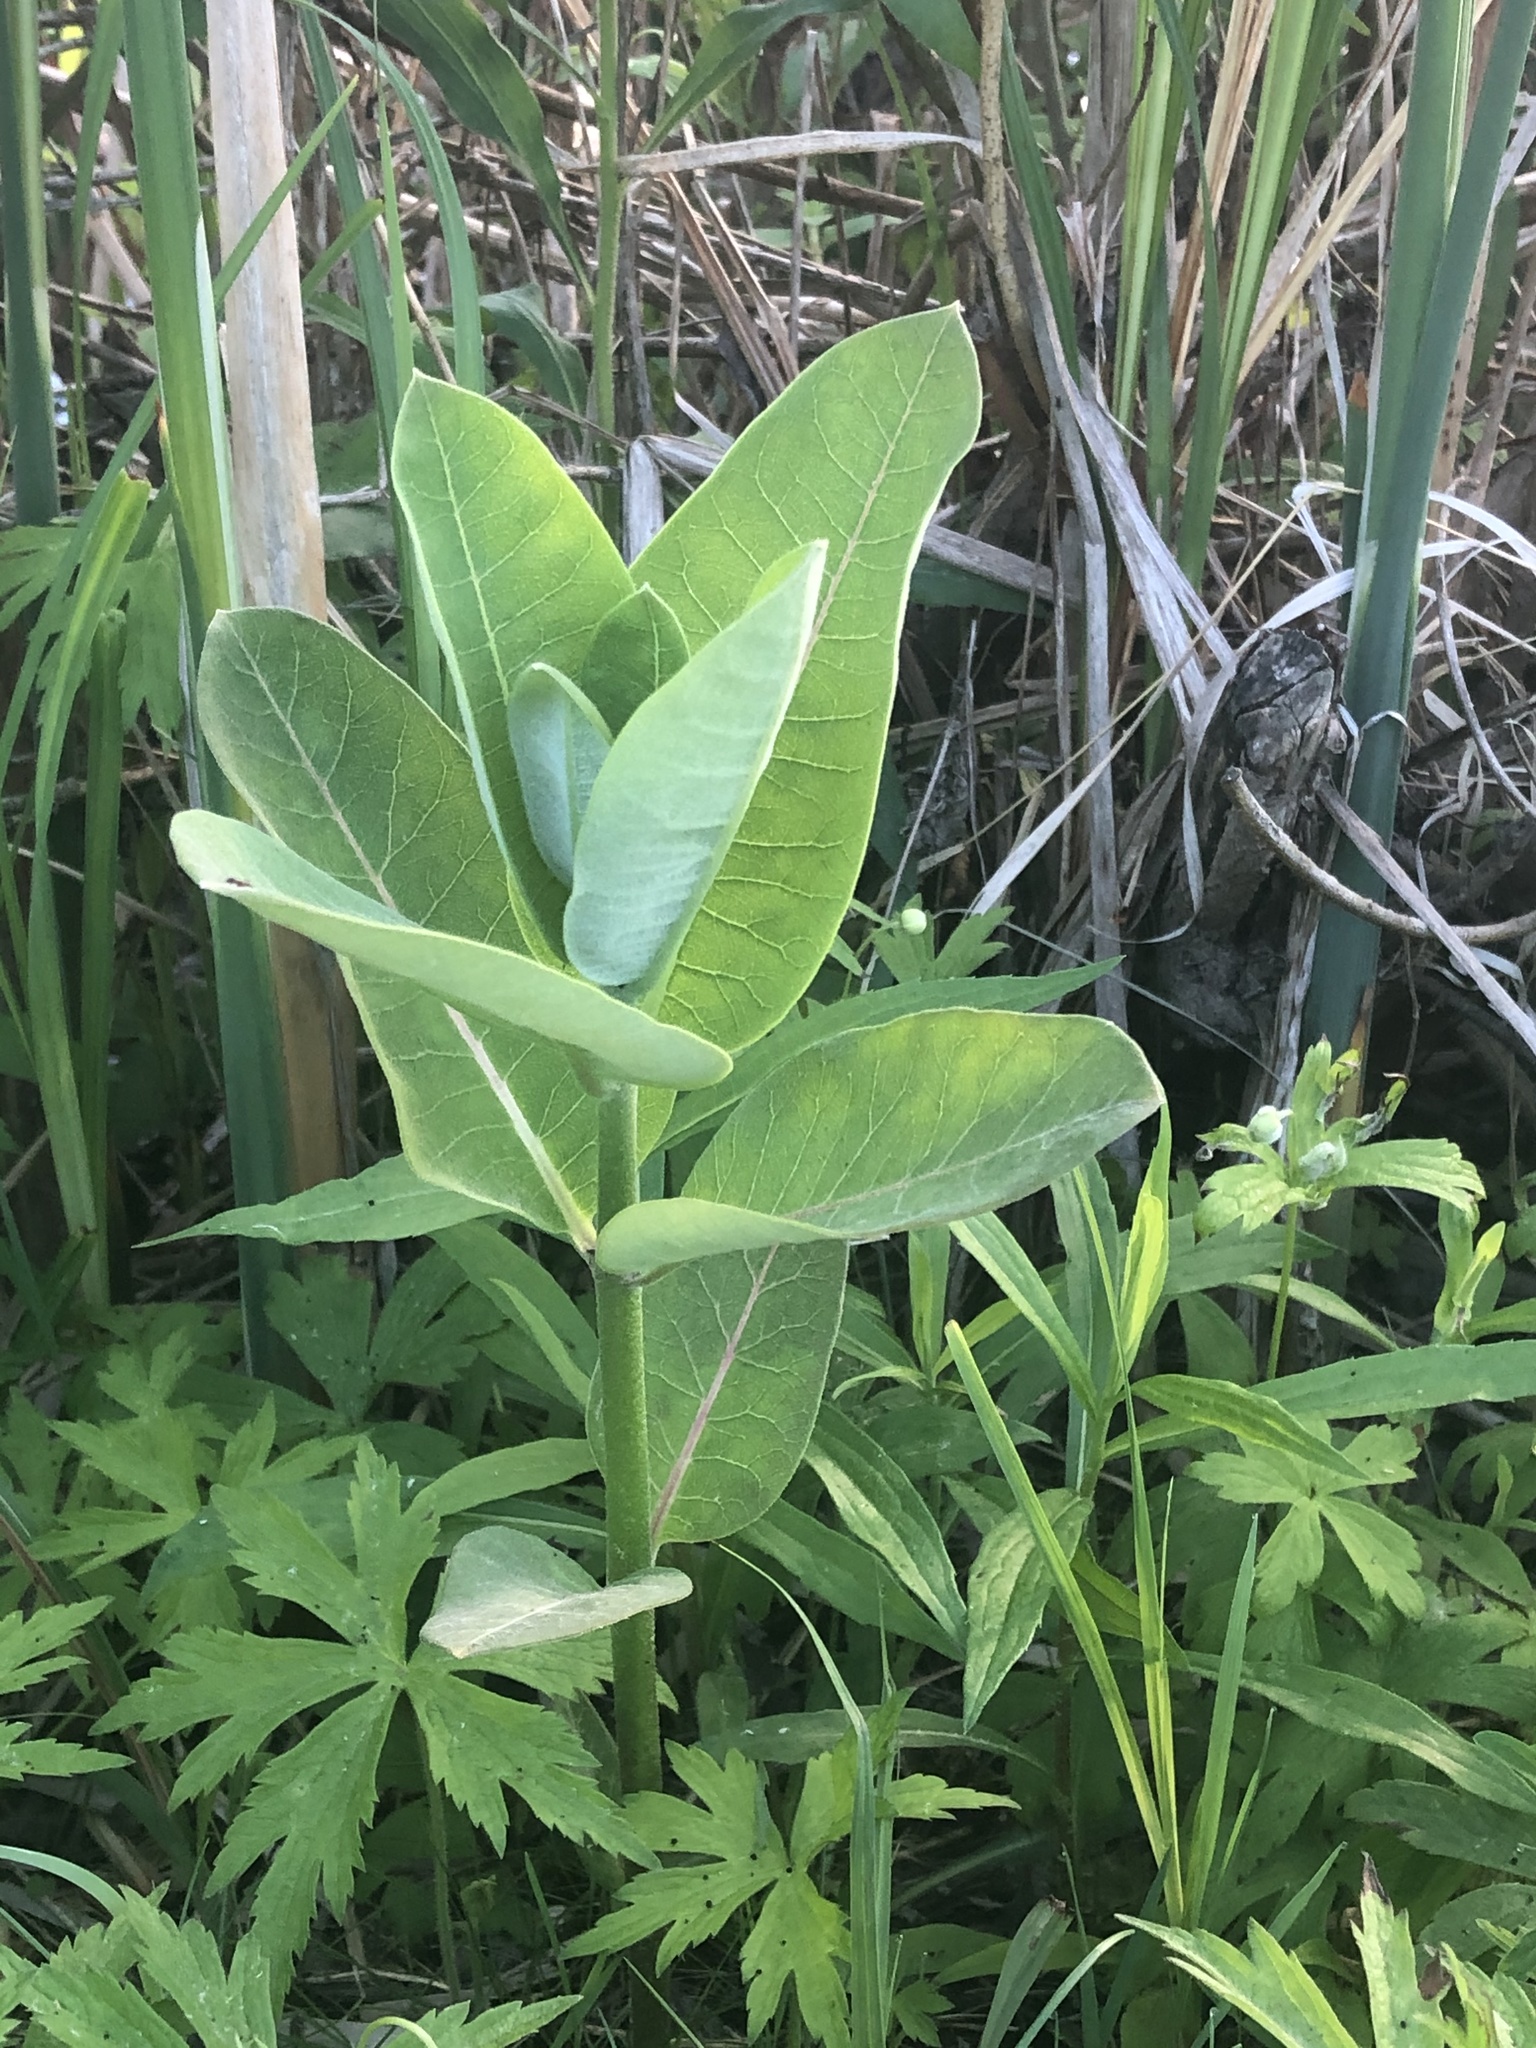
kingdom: Plantae
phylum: Tracheophyta
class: Magnoliopsida
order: Gentianales
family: Apocynaceae
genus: Asclepias
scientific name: Asclepias syriaca
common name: Common milkweed
